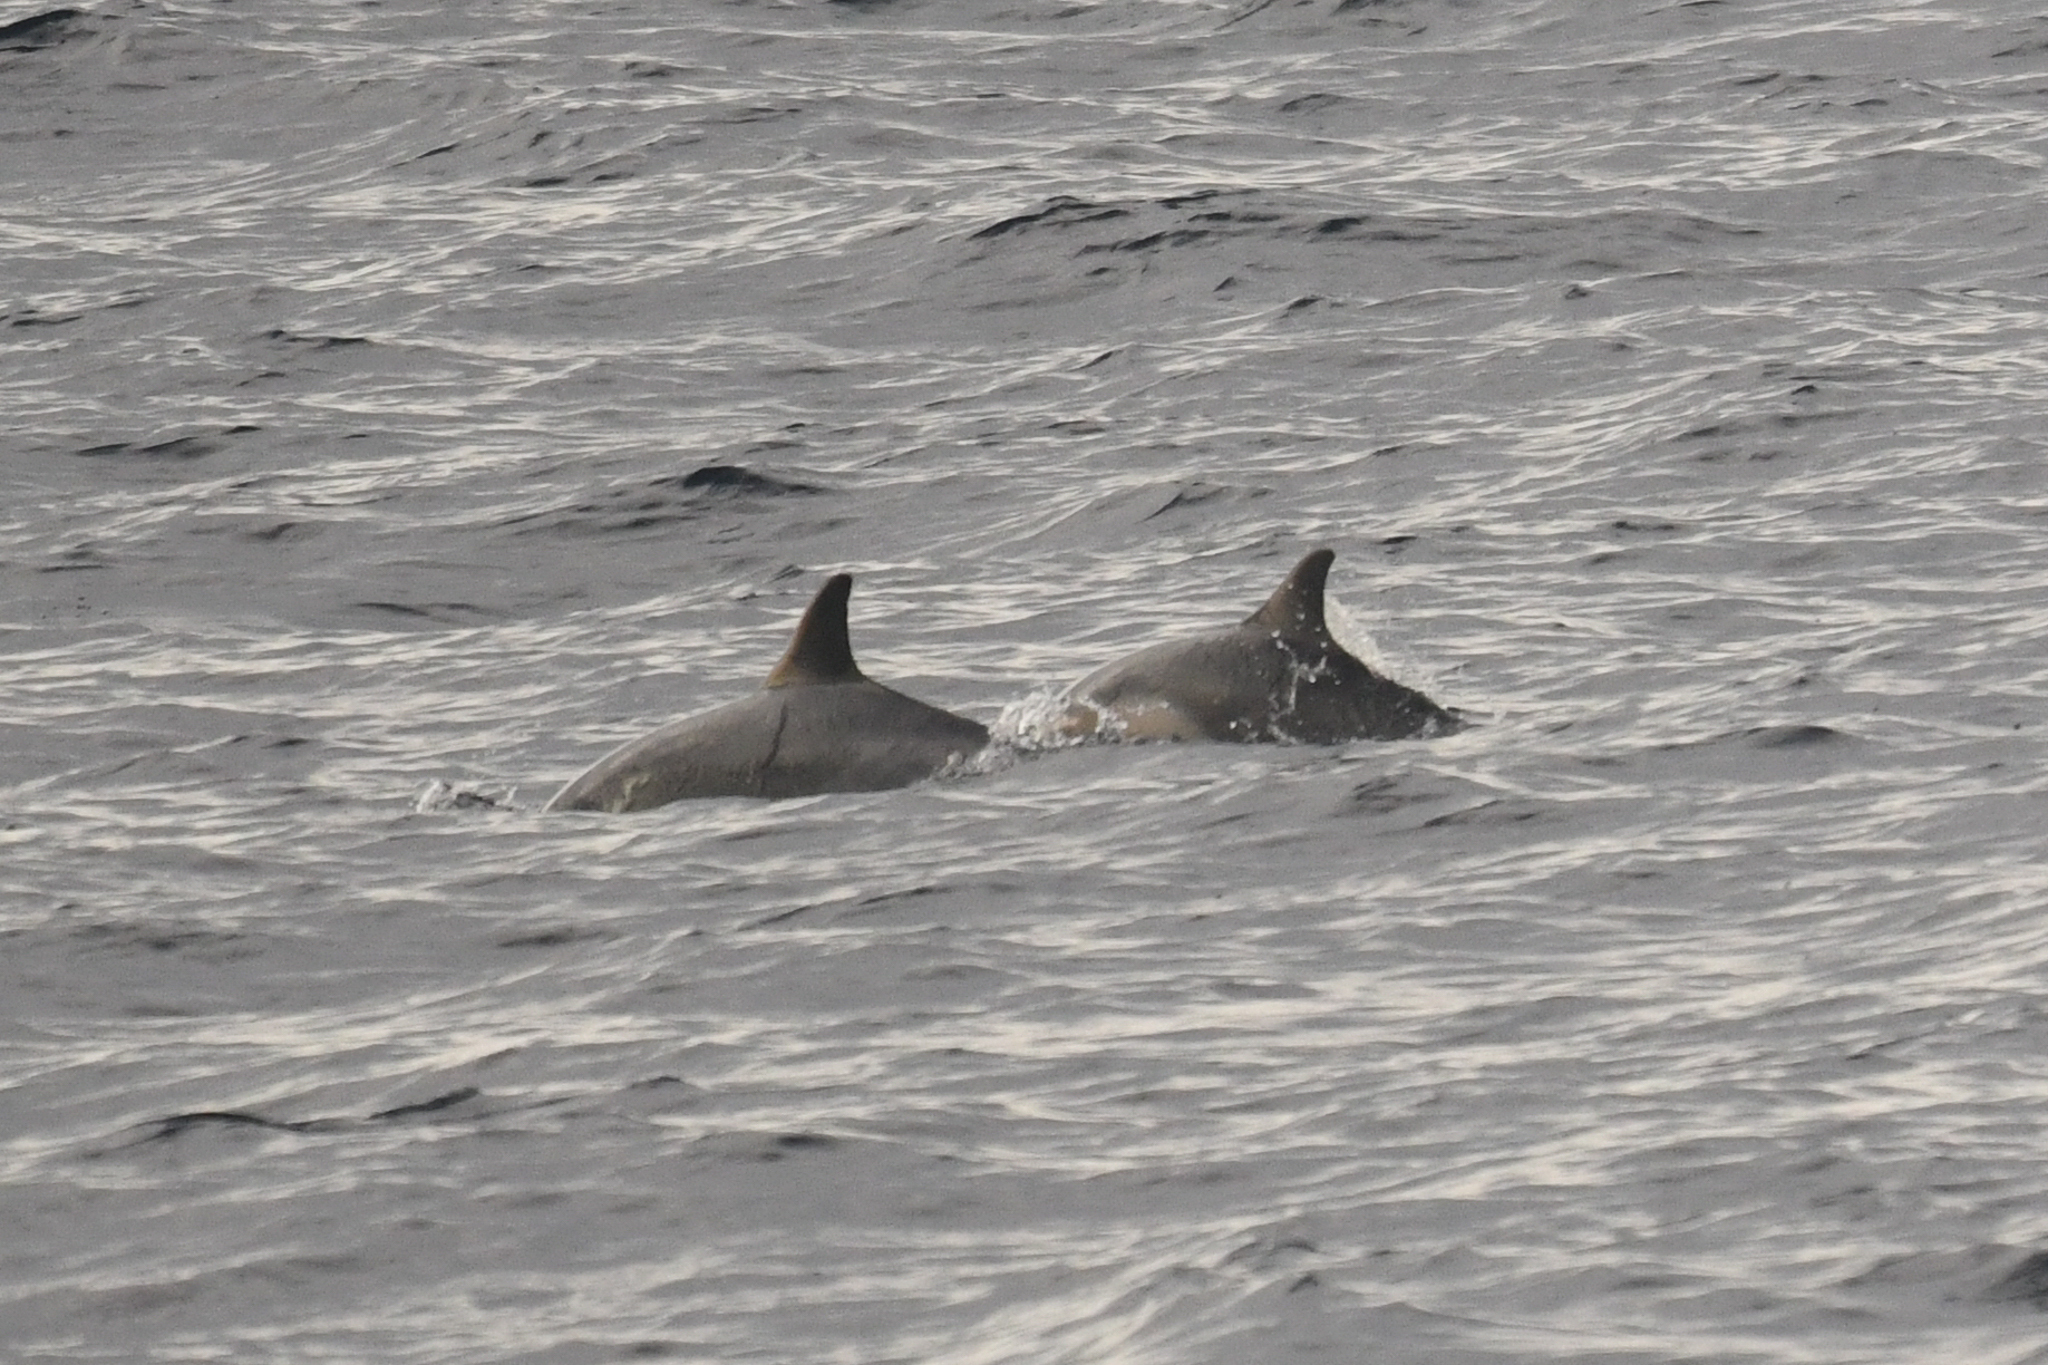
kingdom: Animalia
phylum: Chordata
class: Mammalia
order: Cetacea
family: Delphinidae
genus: Delphinus
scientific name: Delphinus delphis
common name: Common dolphin
